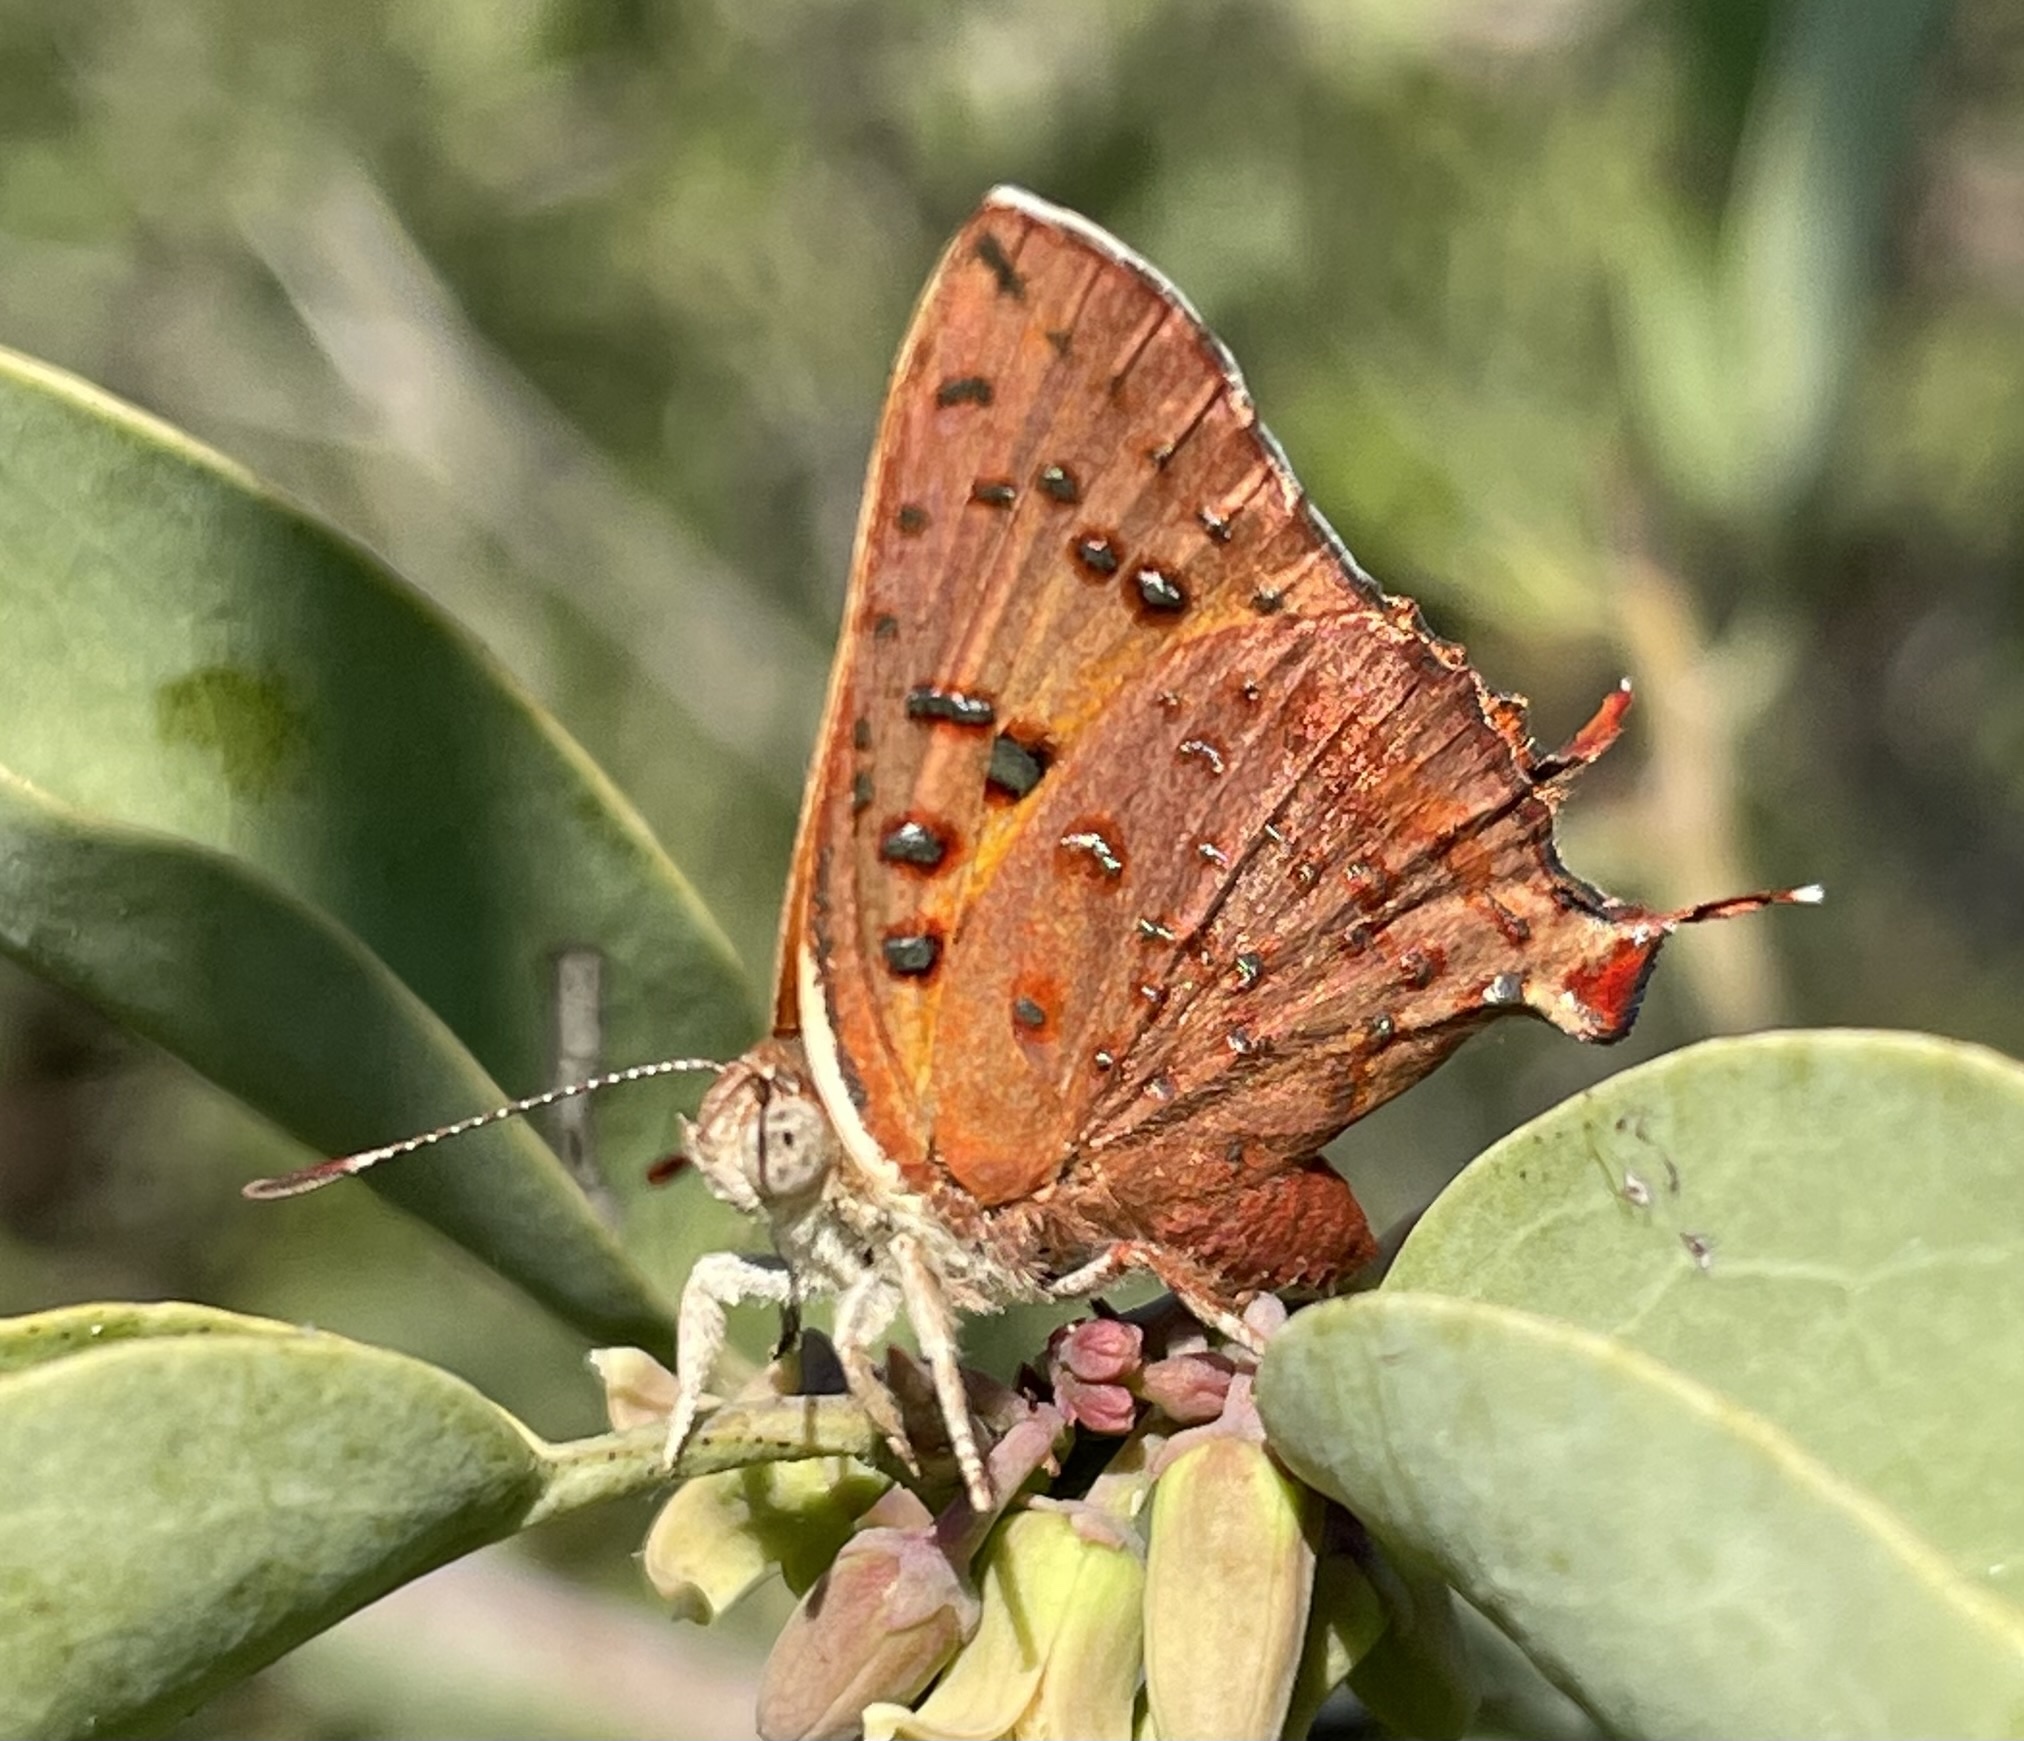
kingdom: Animalia
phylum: Arthropoda
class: Insecta
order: Lepidoptera
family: Lycaenidae
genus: Axiocerses
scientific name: Axiocerses perion
